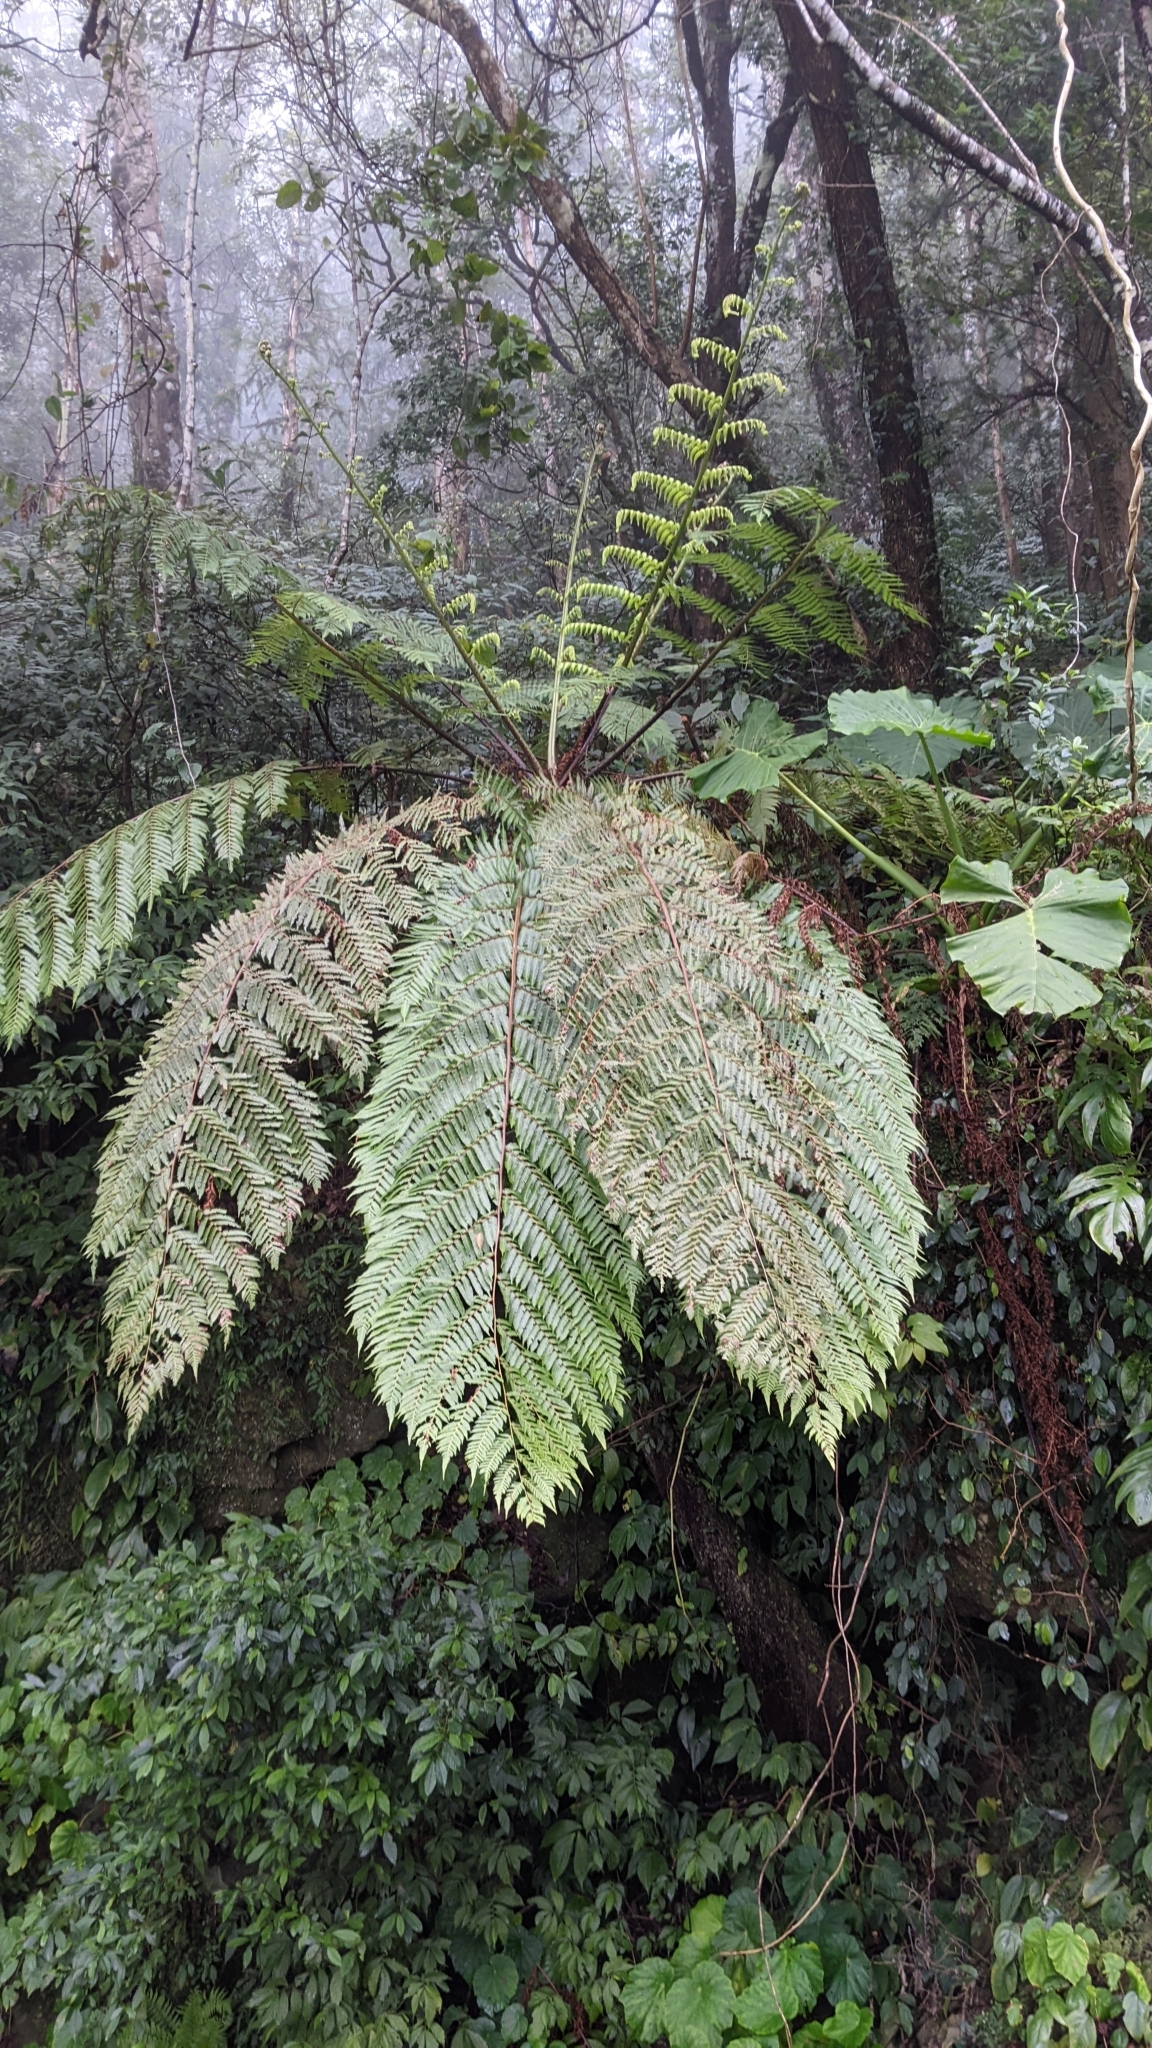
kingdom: Plantae
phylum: Tracheophyta
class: Polypodiopsida
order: Cyatheales
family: Cyatheaceae
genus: Alsophila
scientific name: Alsophila spinulosa
